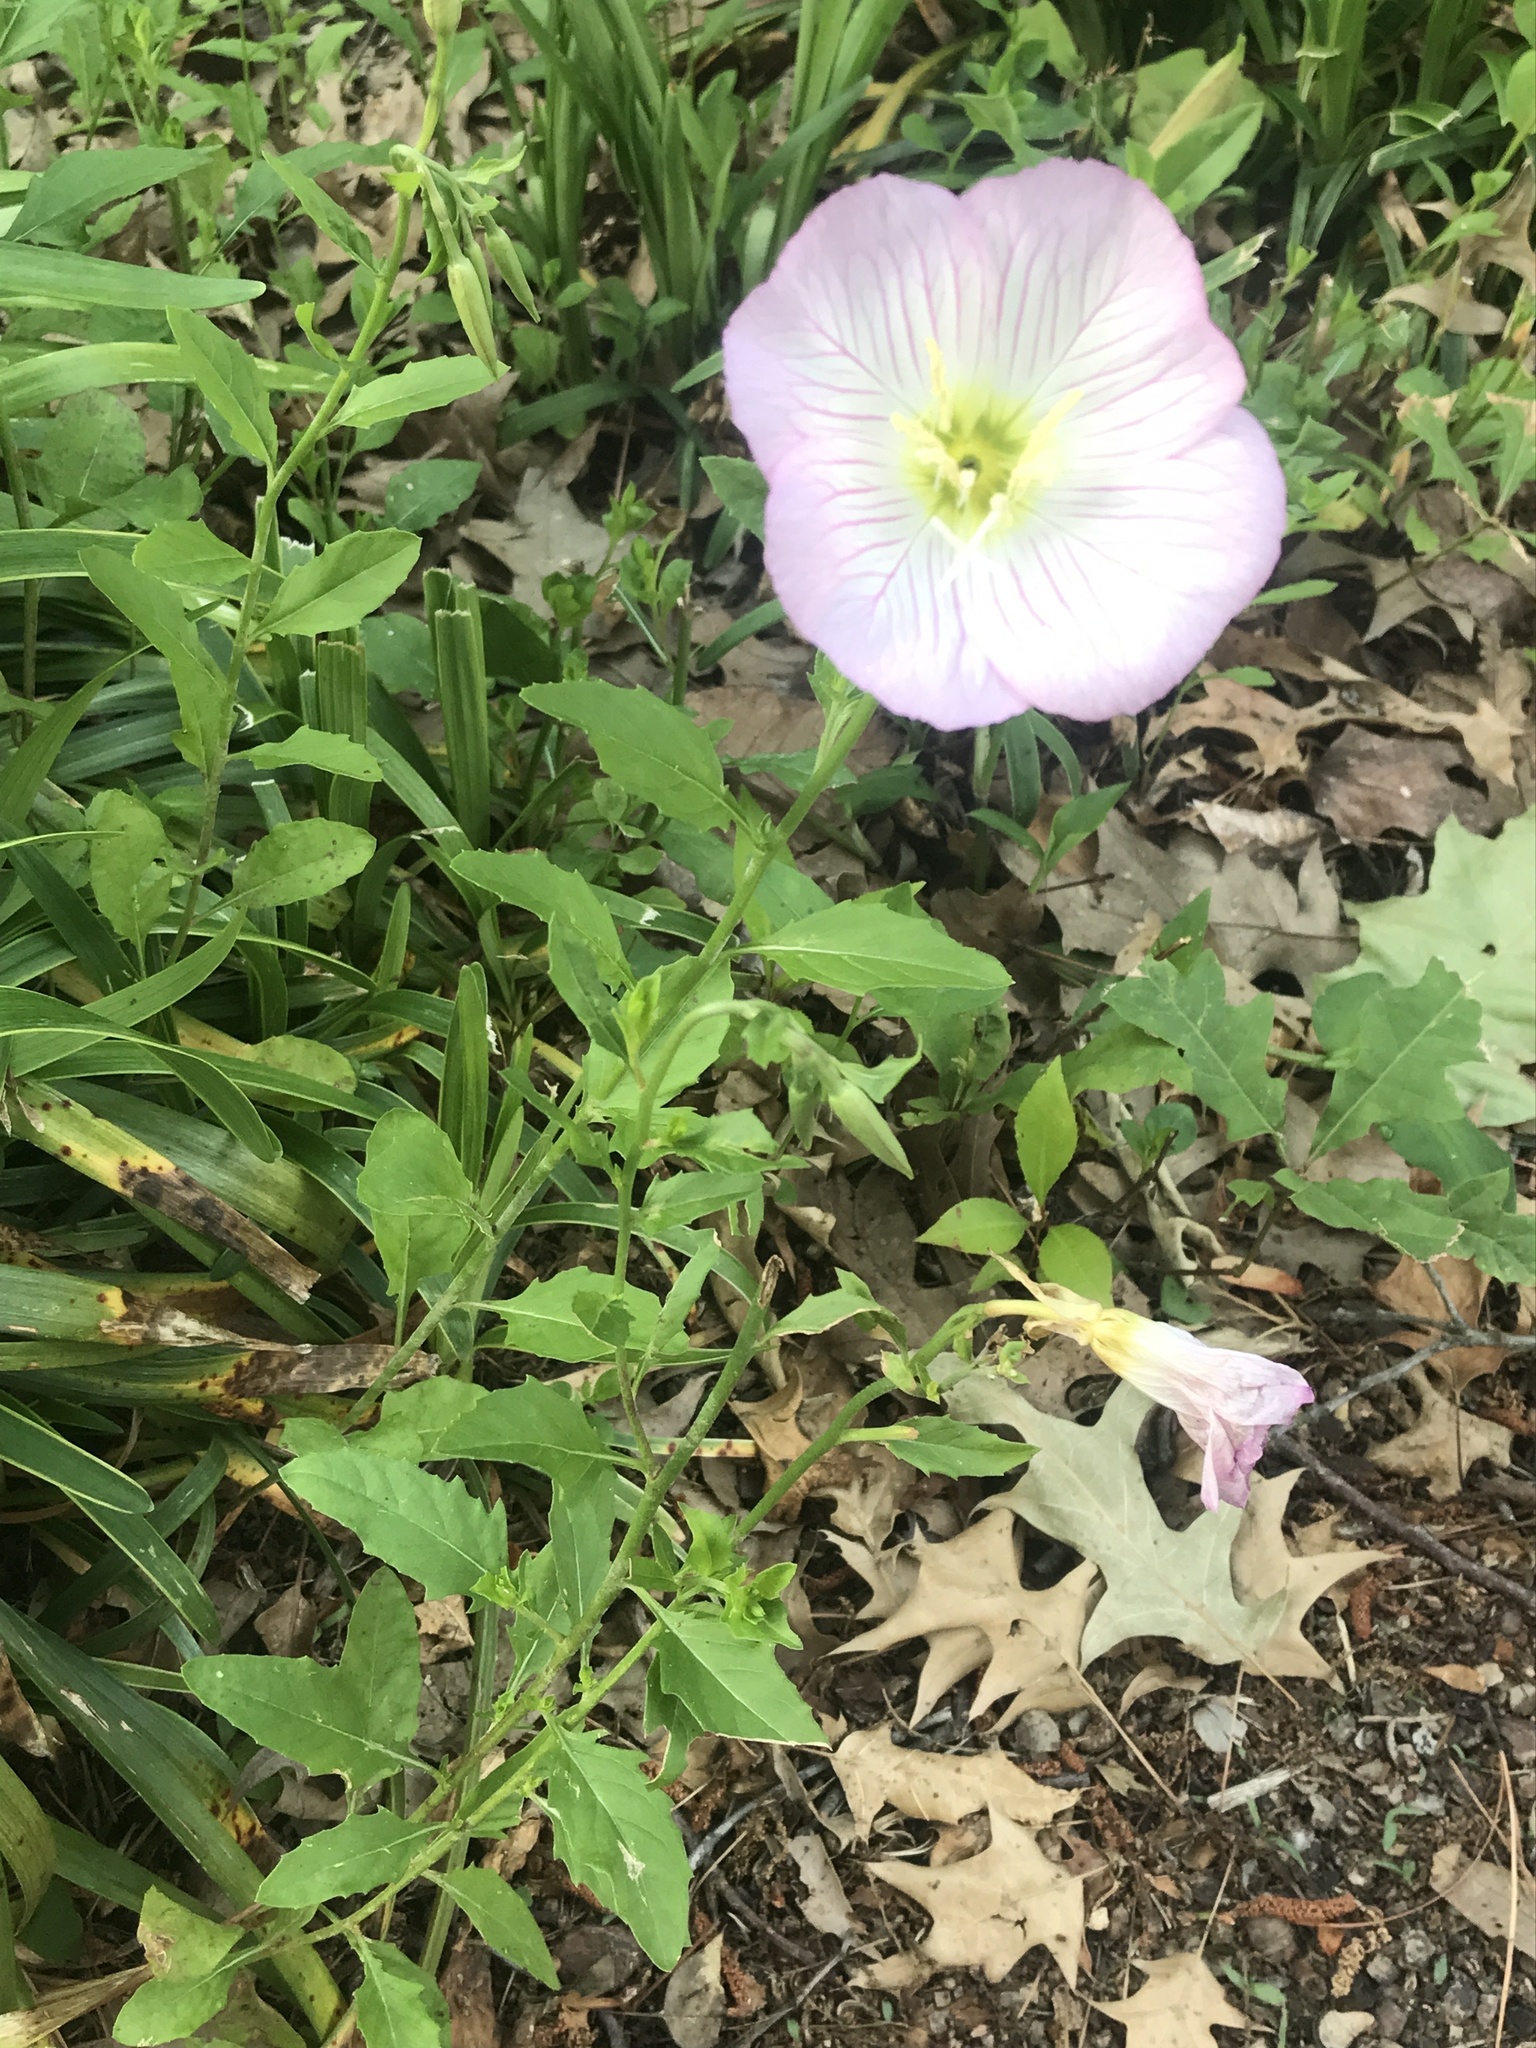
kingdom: Plantae
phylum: Tracheophyta
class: Magnoliopsida
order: Myrtales
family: Onagraceae
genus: Oenothera
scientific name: Oenothera speciosa
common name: White evening-primrose
